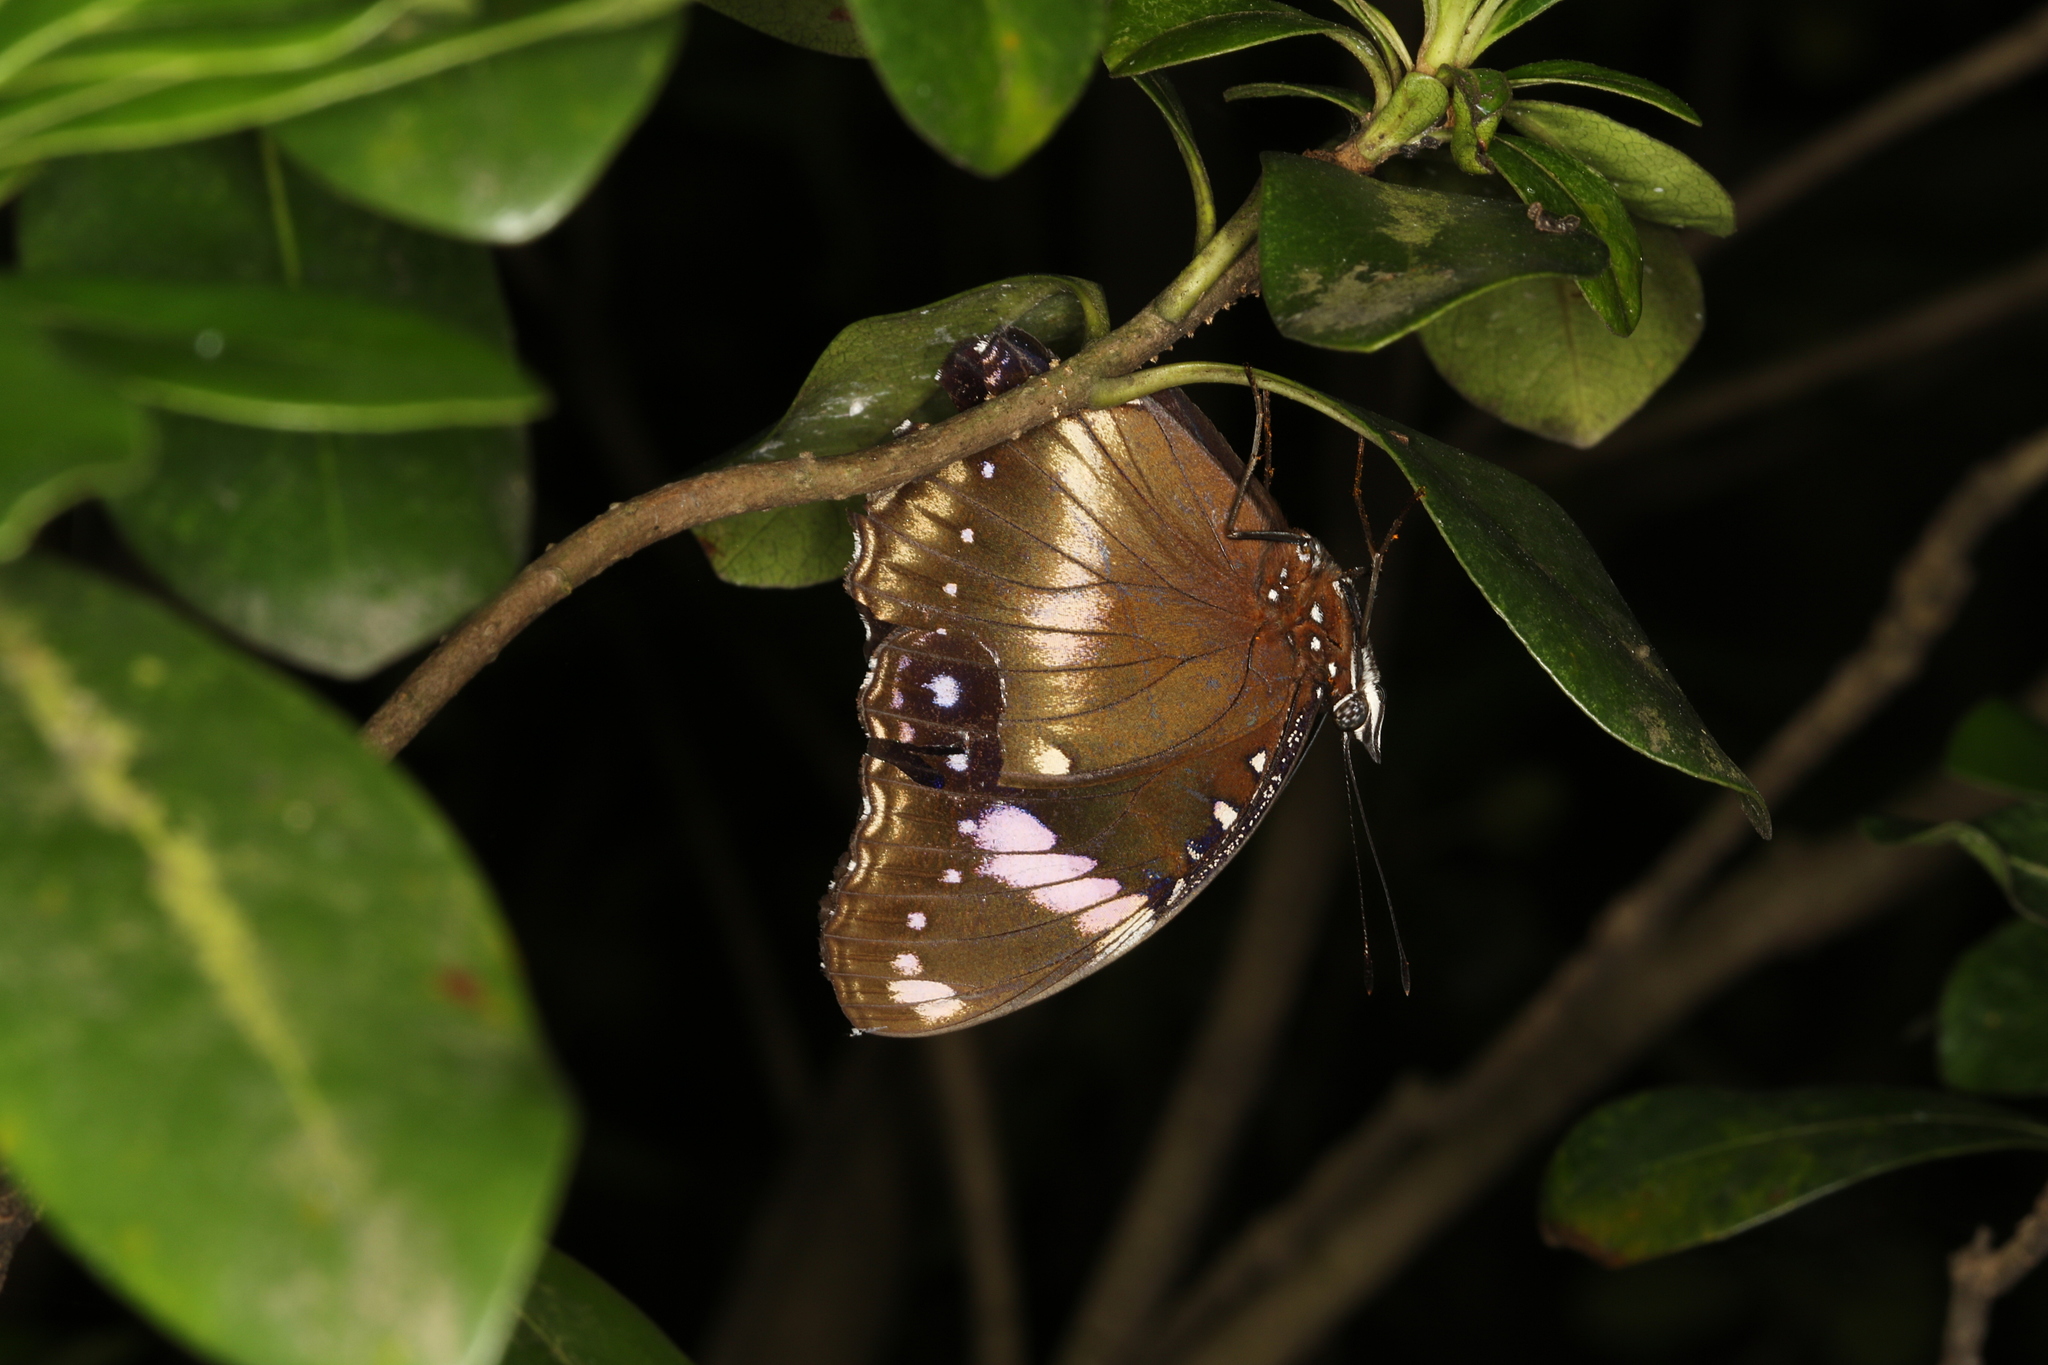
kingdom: Animalia
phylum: Arthropoda
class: Insecta
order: Lepidoptera
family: Nymphalidae
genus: Hypolimnas
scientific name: Hypolimnas bolina
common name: Great eggfly
